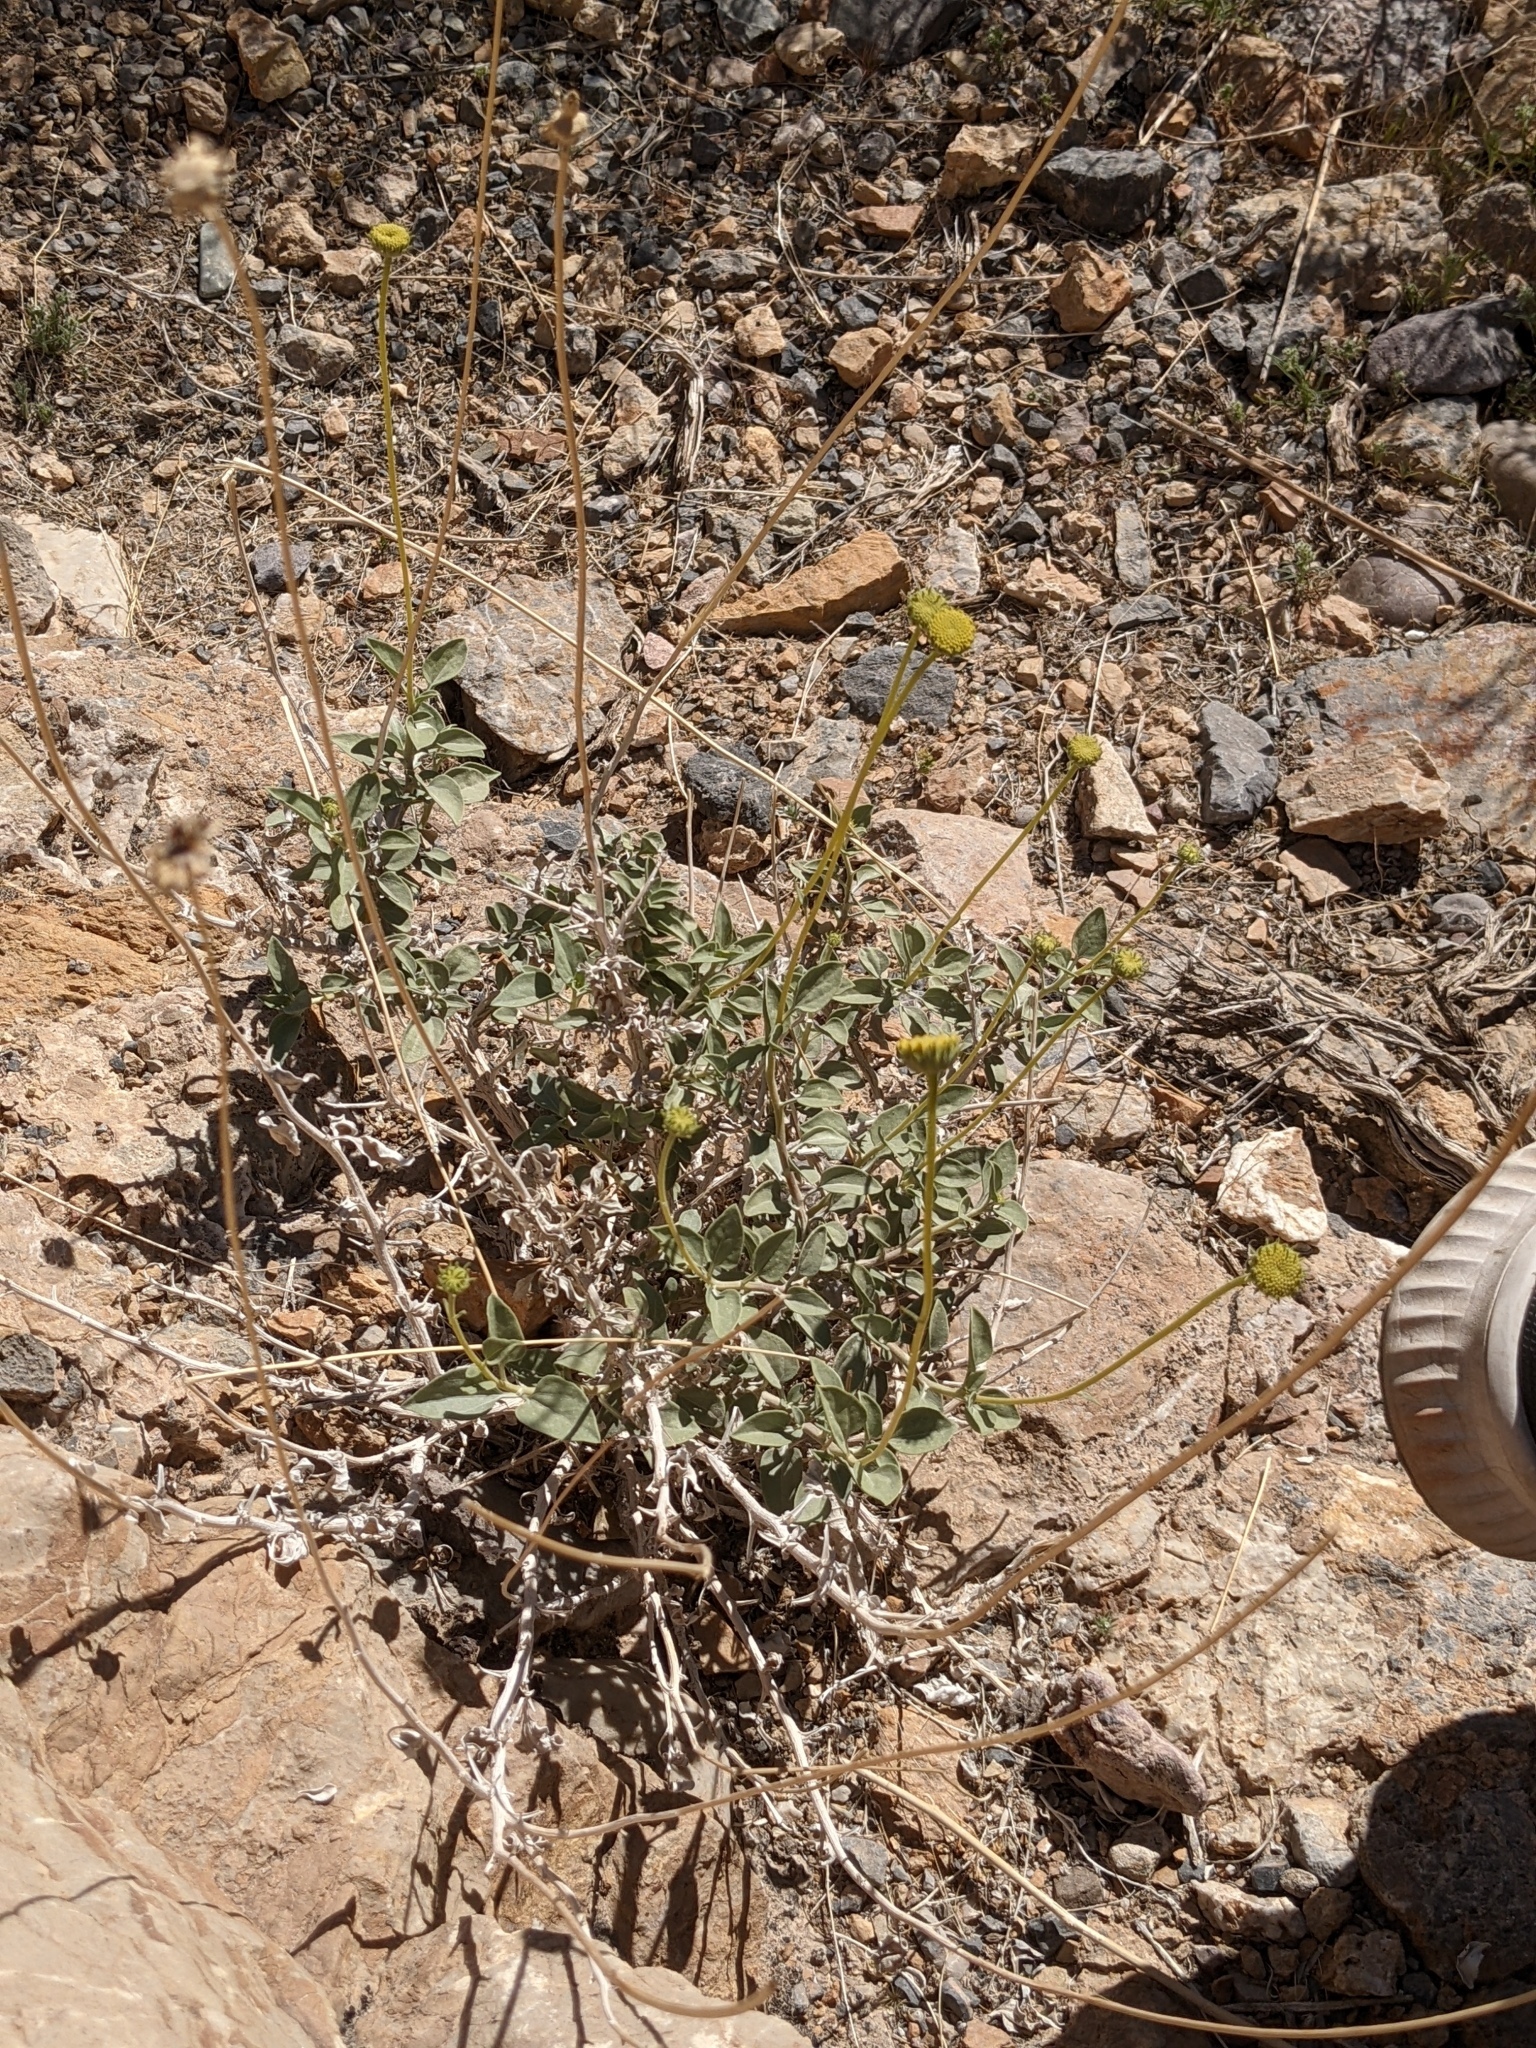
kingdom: Plantae
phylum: Tracheophyta
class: Magnoliopsida
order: Asterales
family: Asteraceae
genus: Encelia
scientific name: Encelia actoni
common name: Acton encelia
